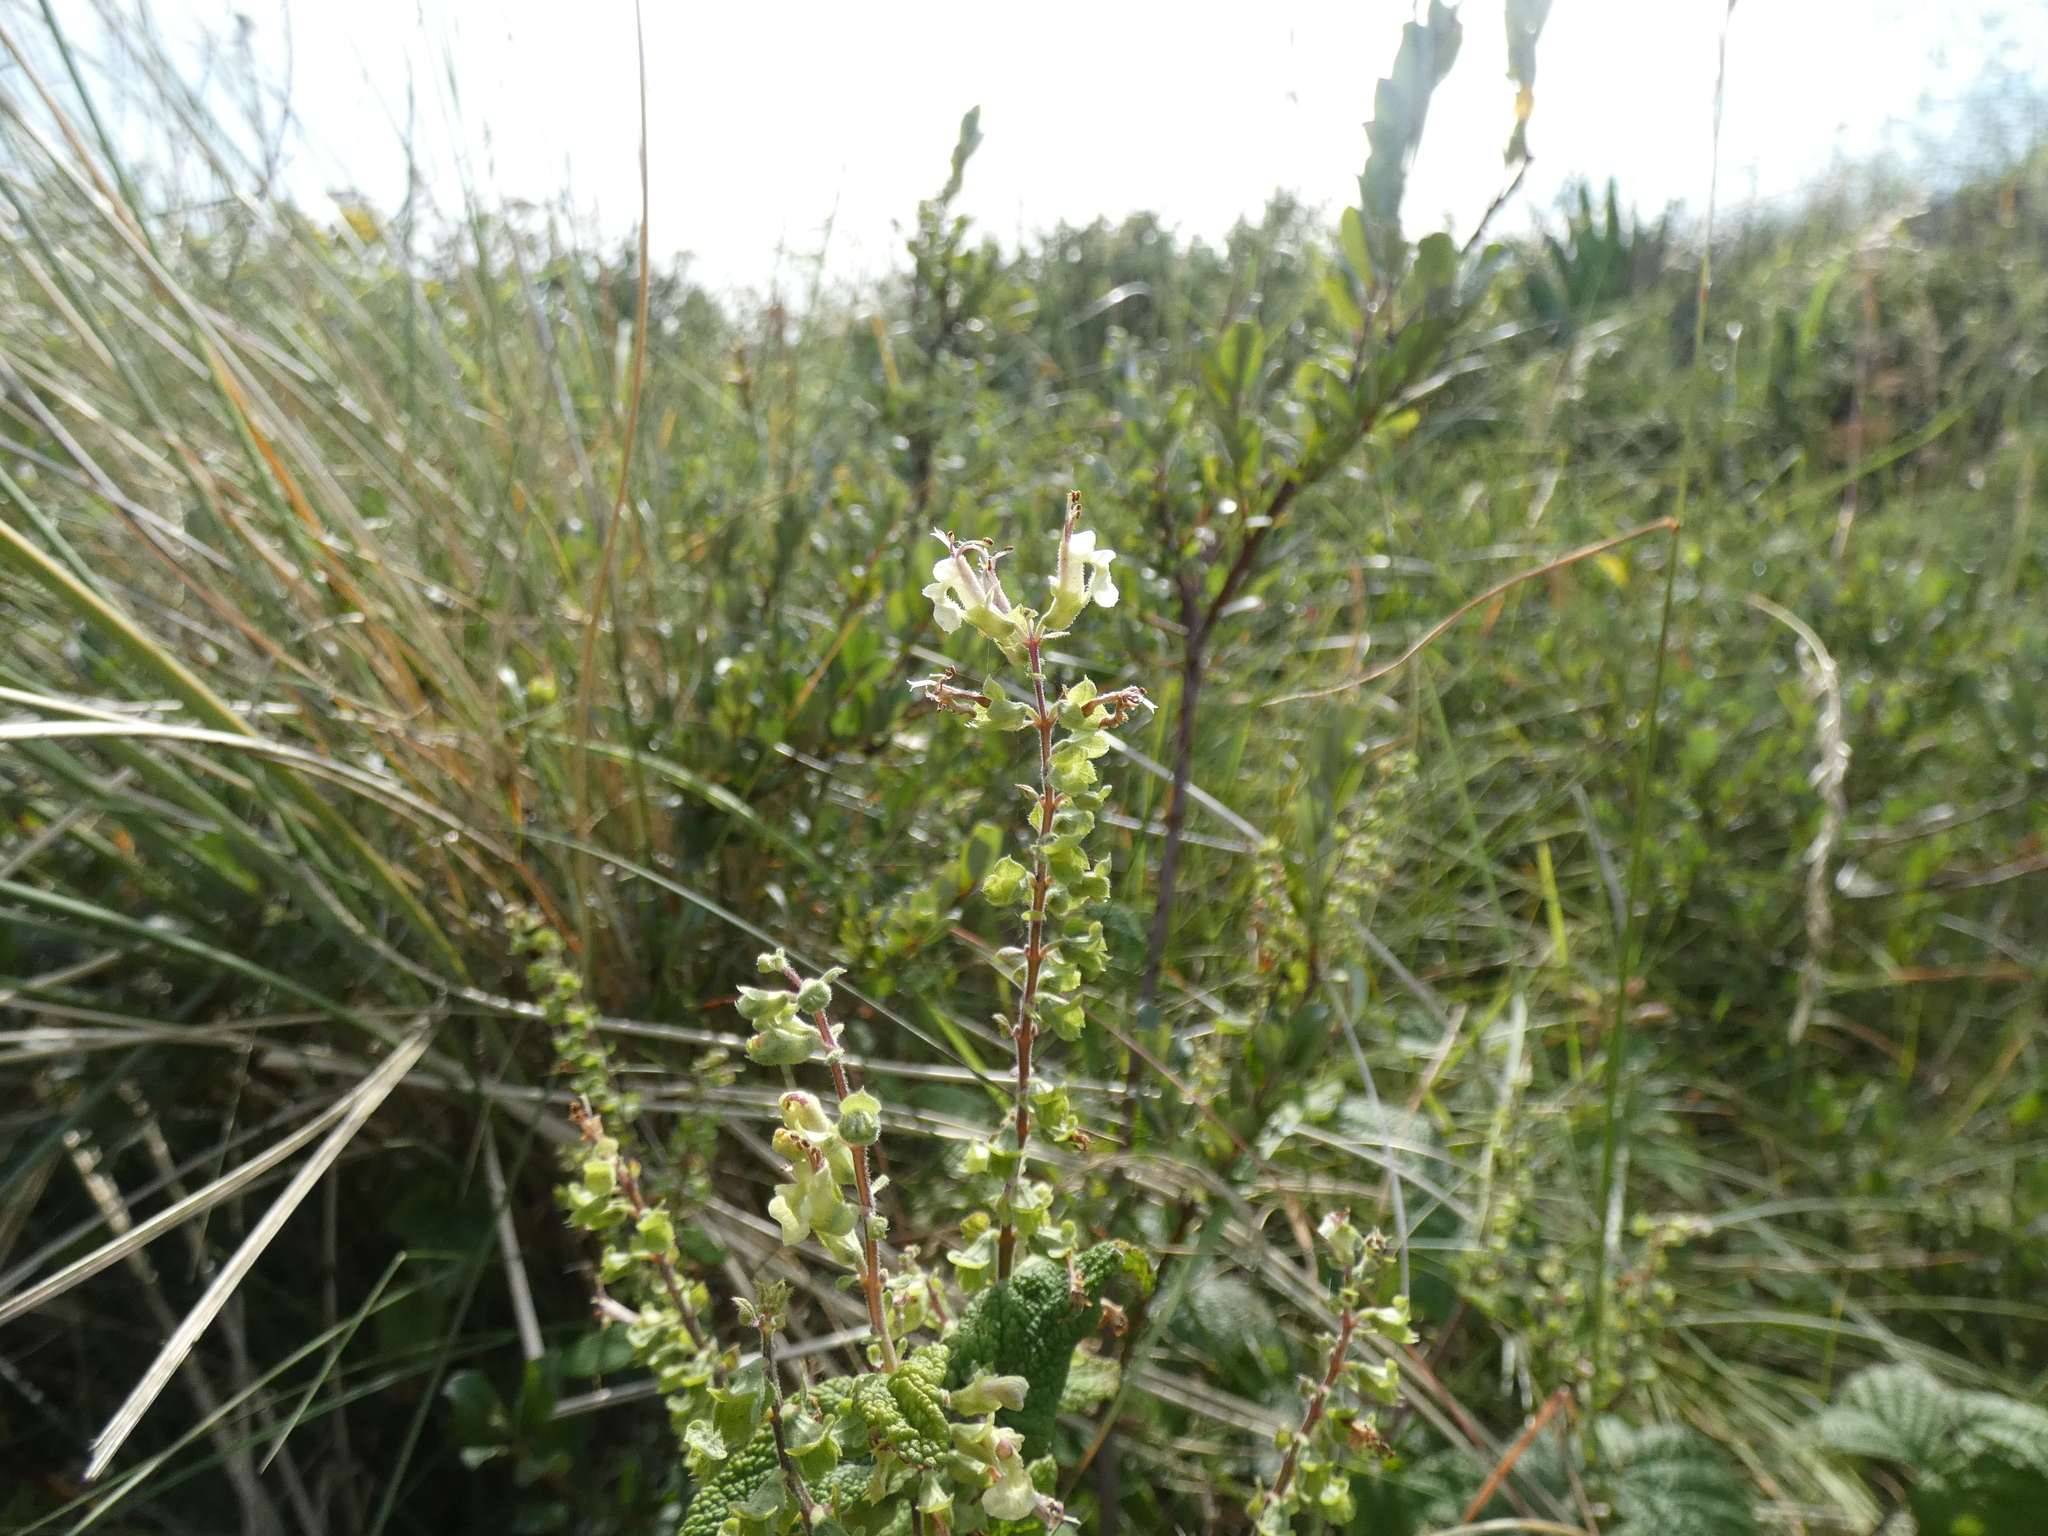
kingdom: Plantae
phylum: Tracheophyta
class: Magnoliopsida
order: Lamiales
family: Lamiaceae
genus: Teucrium
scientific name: Teucrium scorodonia
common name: Woodland germander
